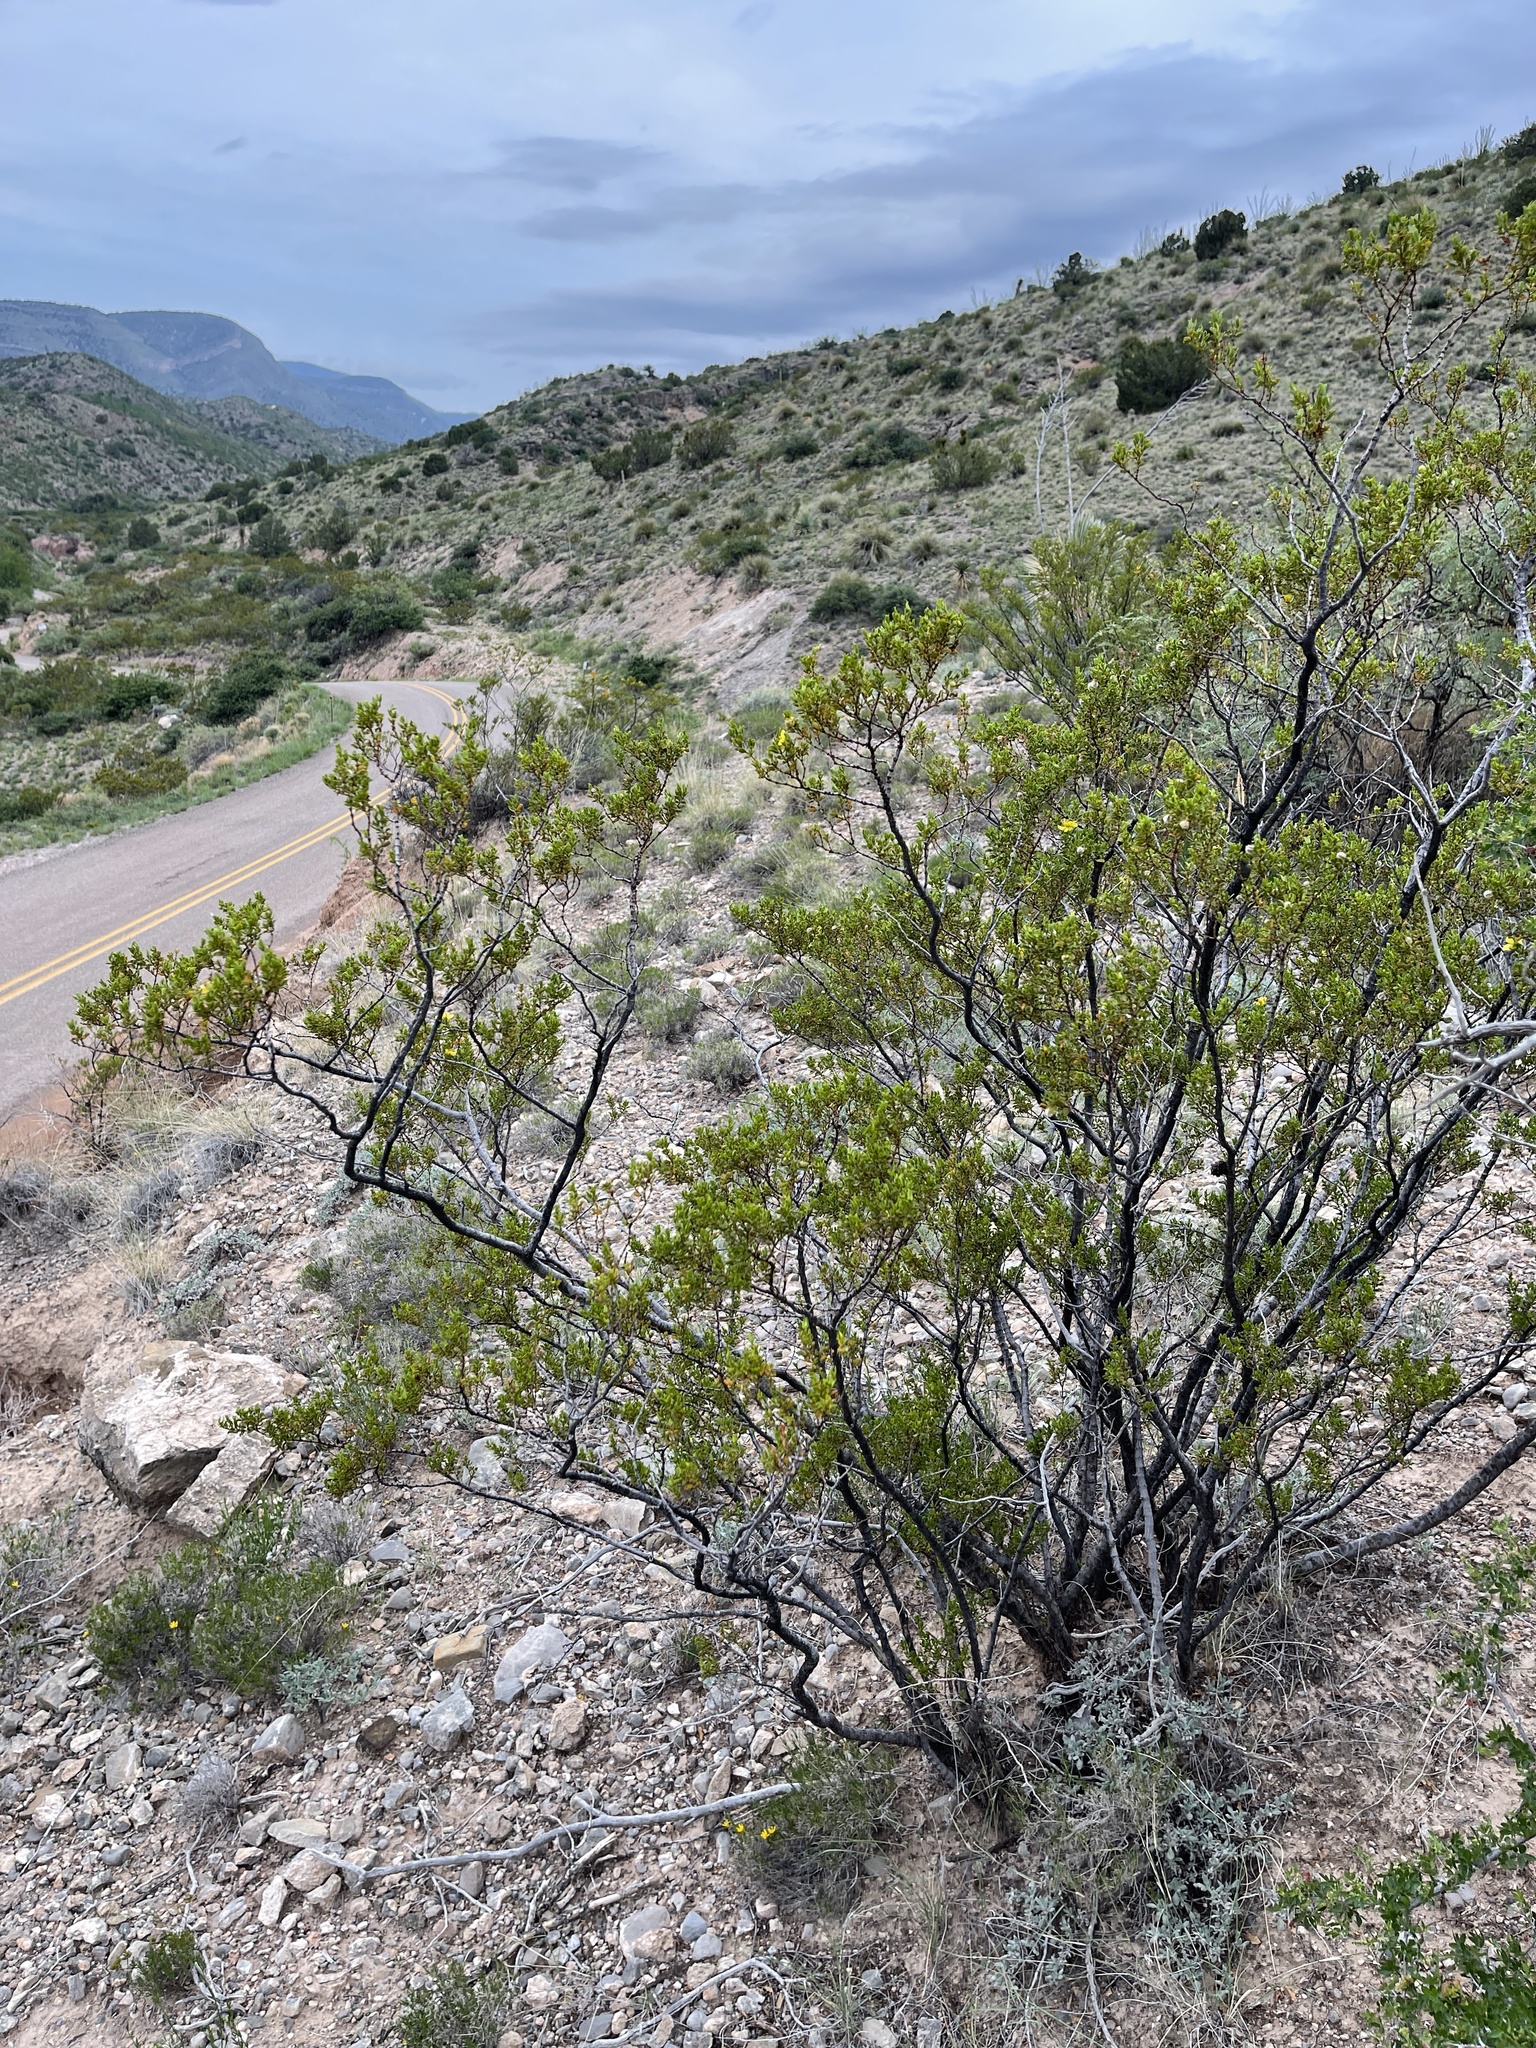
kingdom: Plantae
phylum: Tracheophyta
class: Magnoliopsida
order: Zygophyllales
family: Zygophyllaceae
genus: Larrea
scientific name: Larrea tridentata
